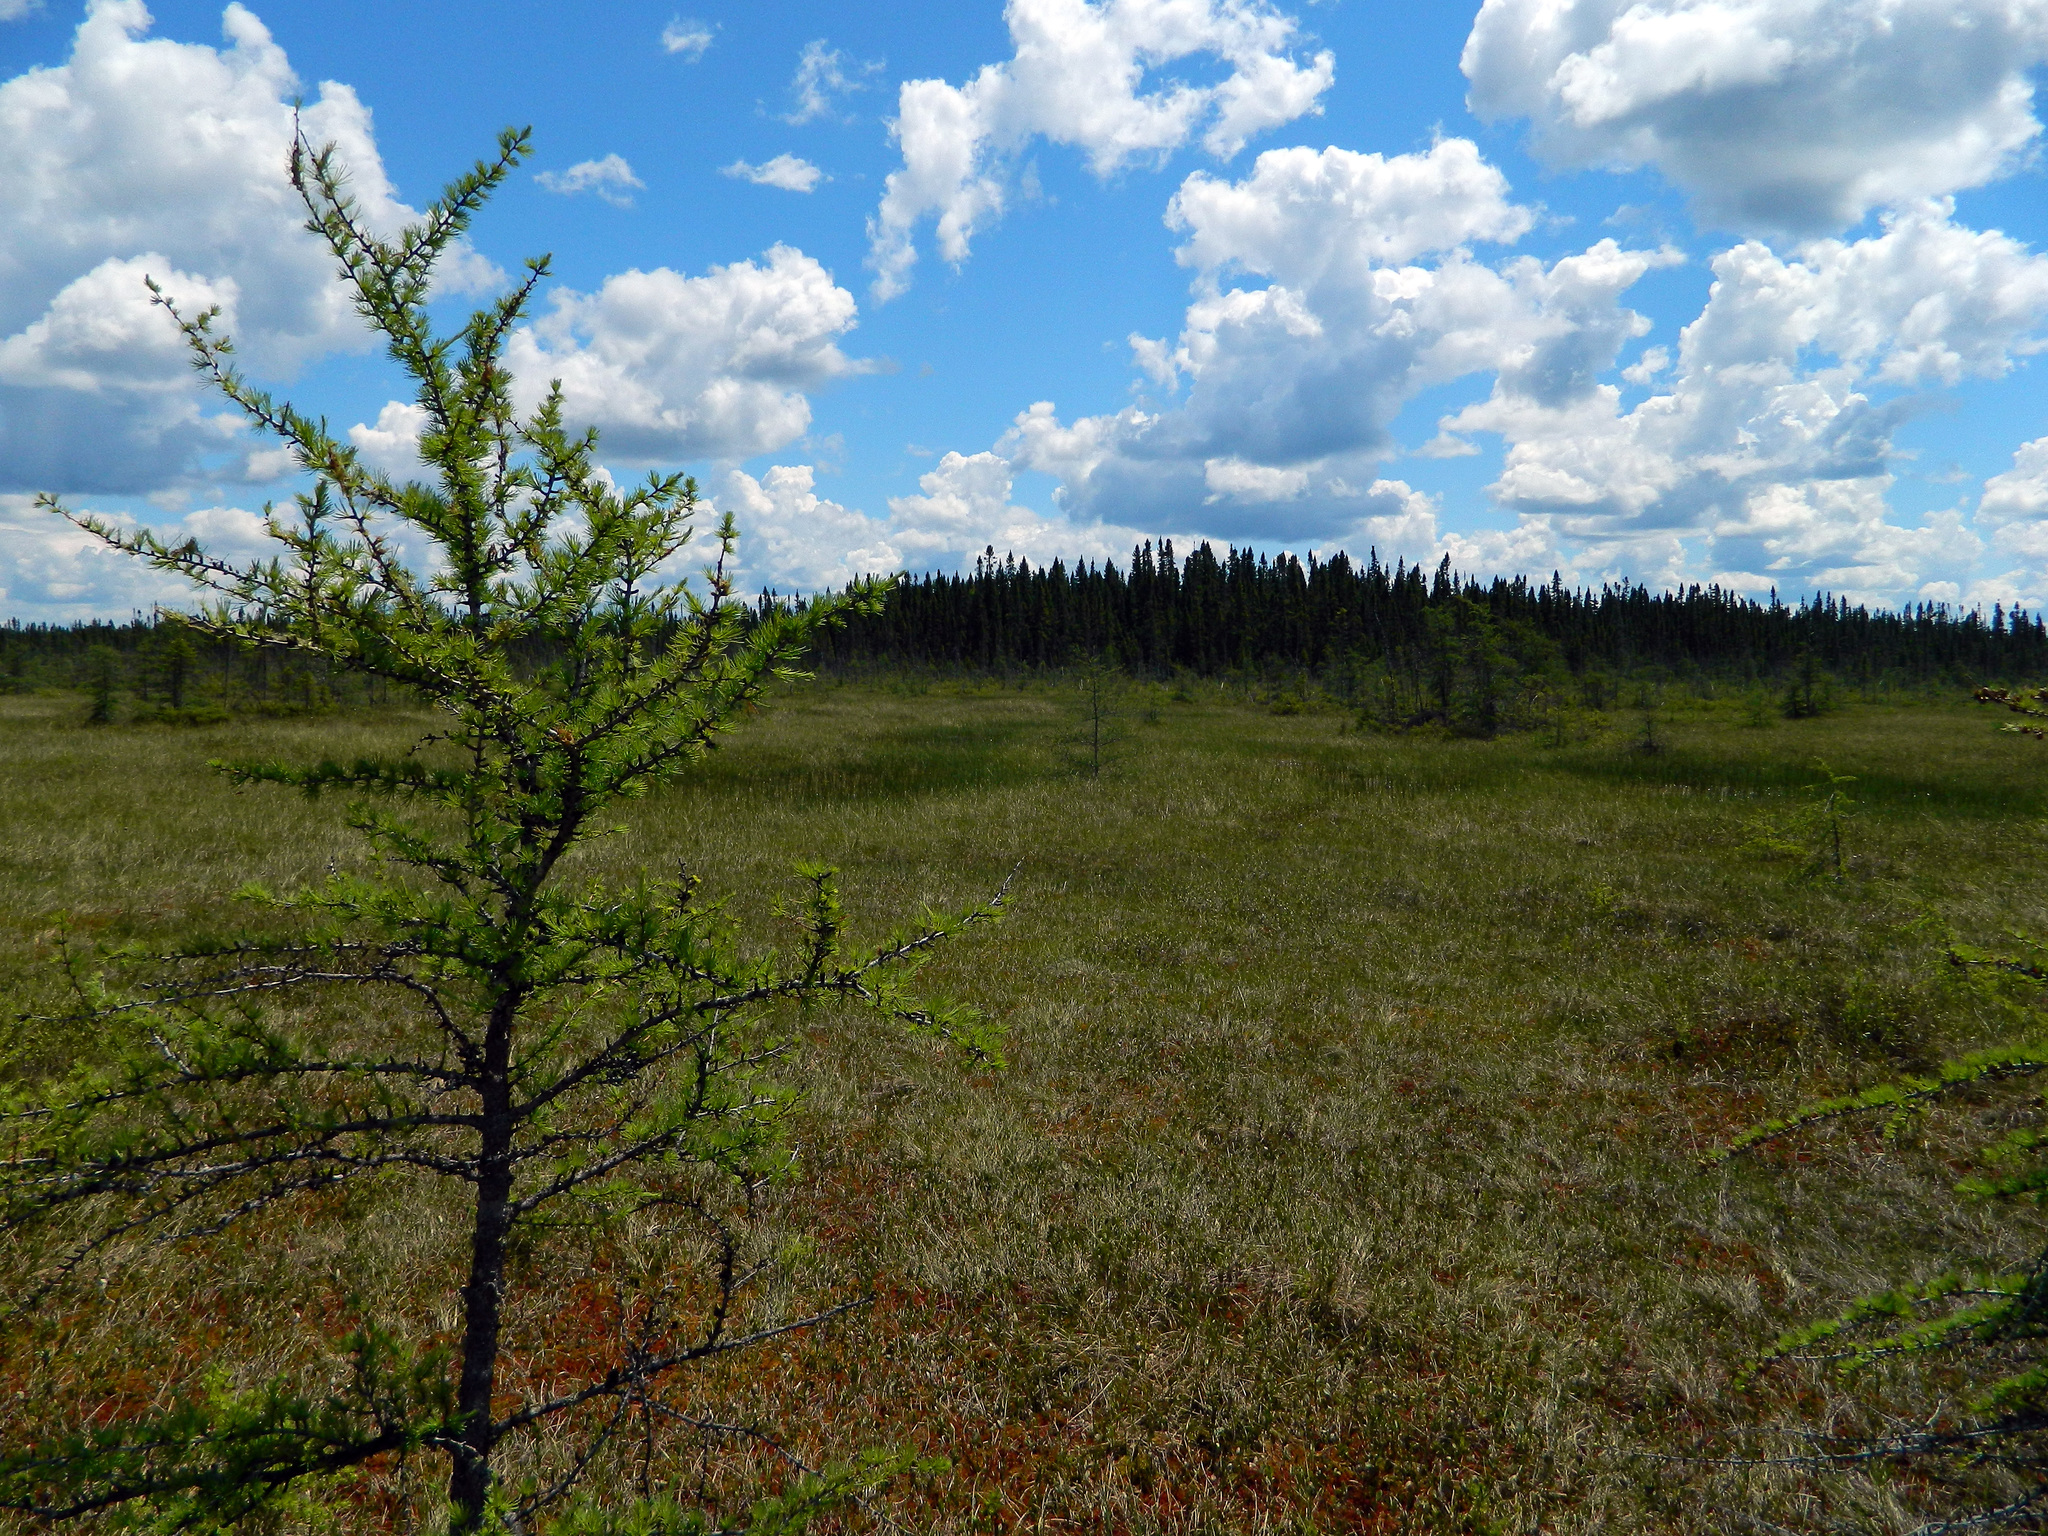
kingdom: Plantae
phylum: Tracheophyta
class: Pinopsida
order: Pinales
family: Pinaceae
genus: Larix
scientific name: Larix laricina
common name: American larch
